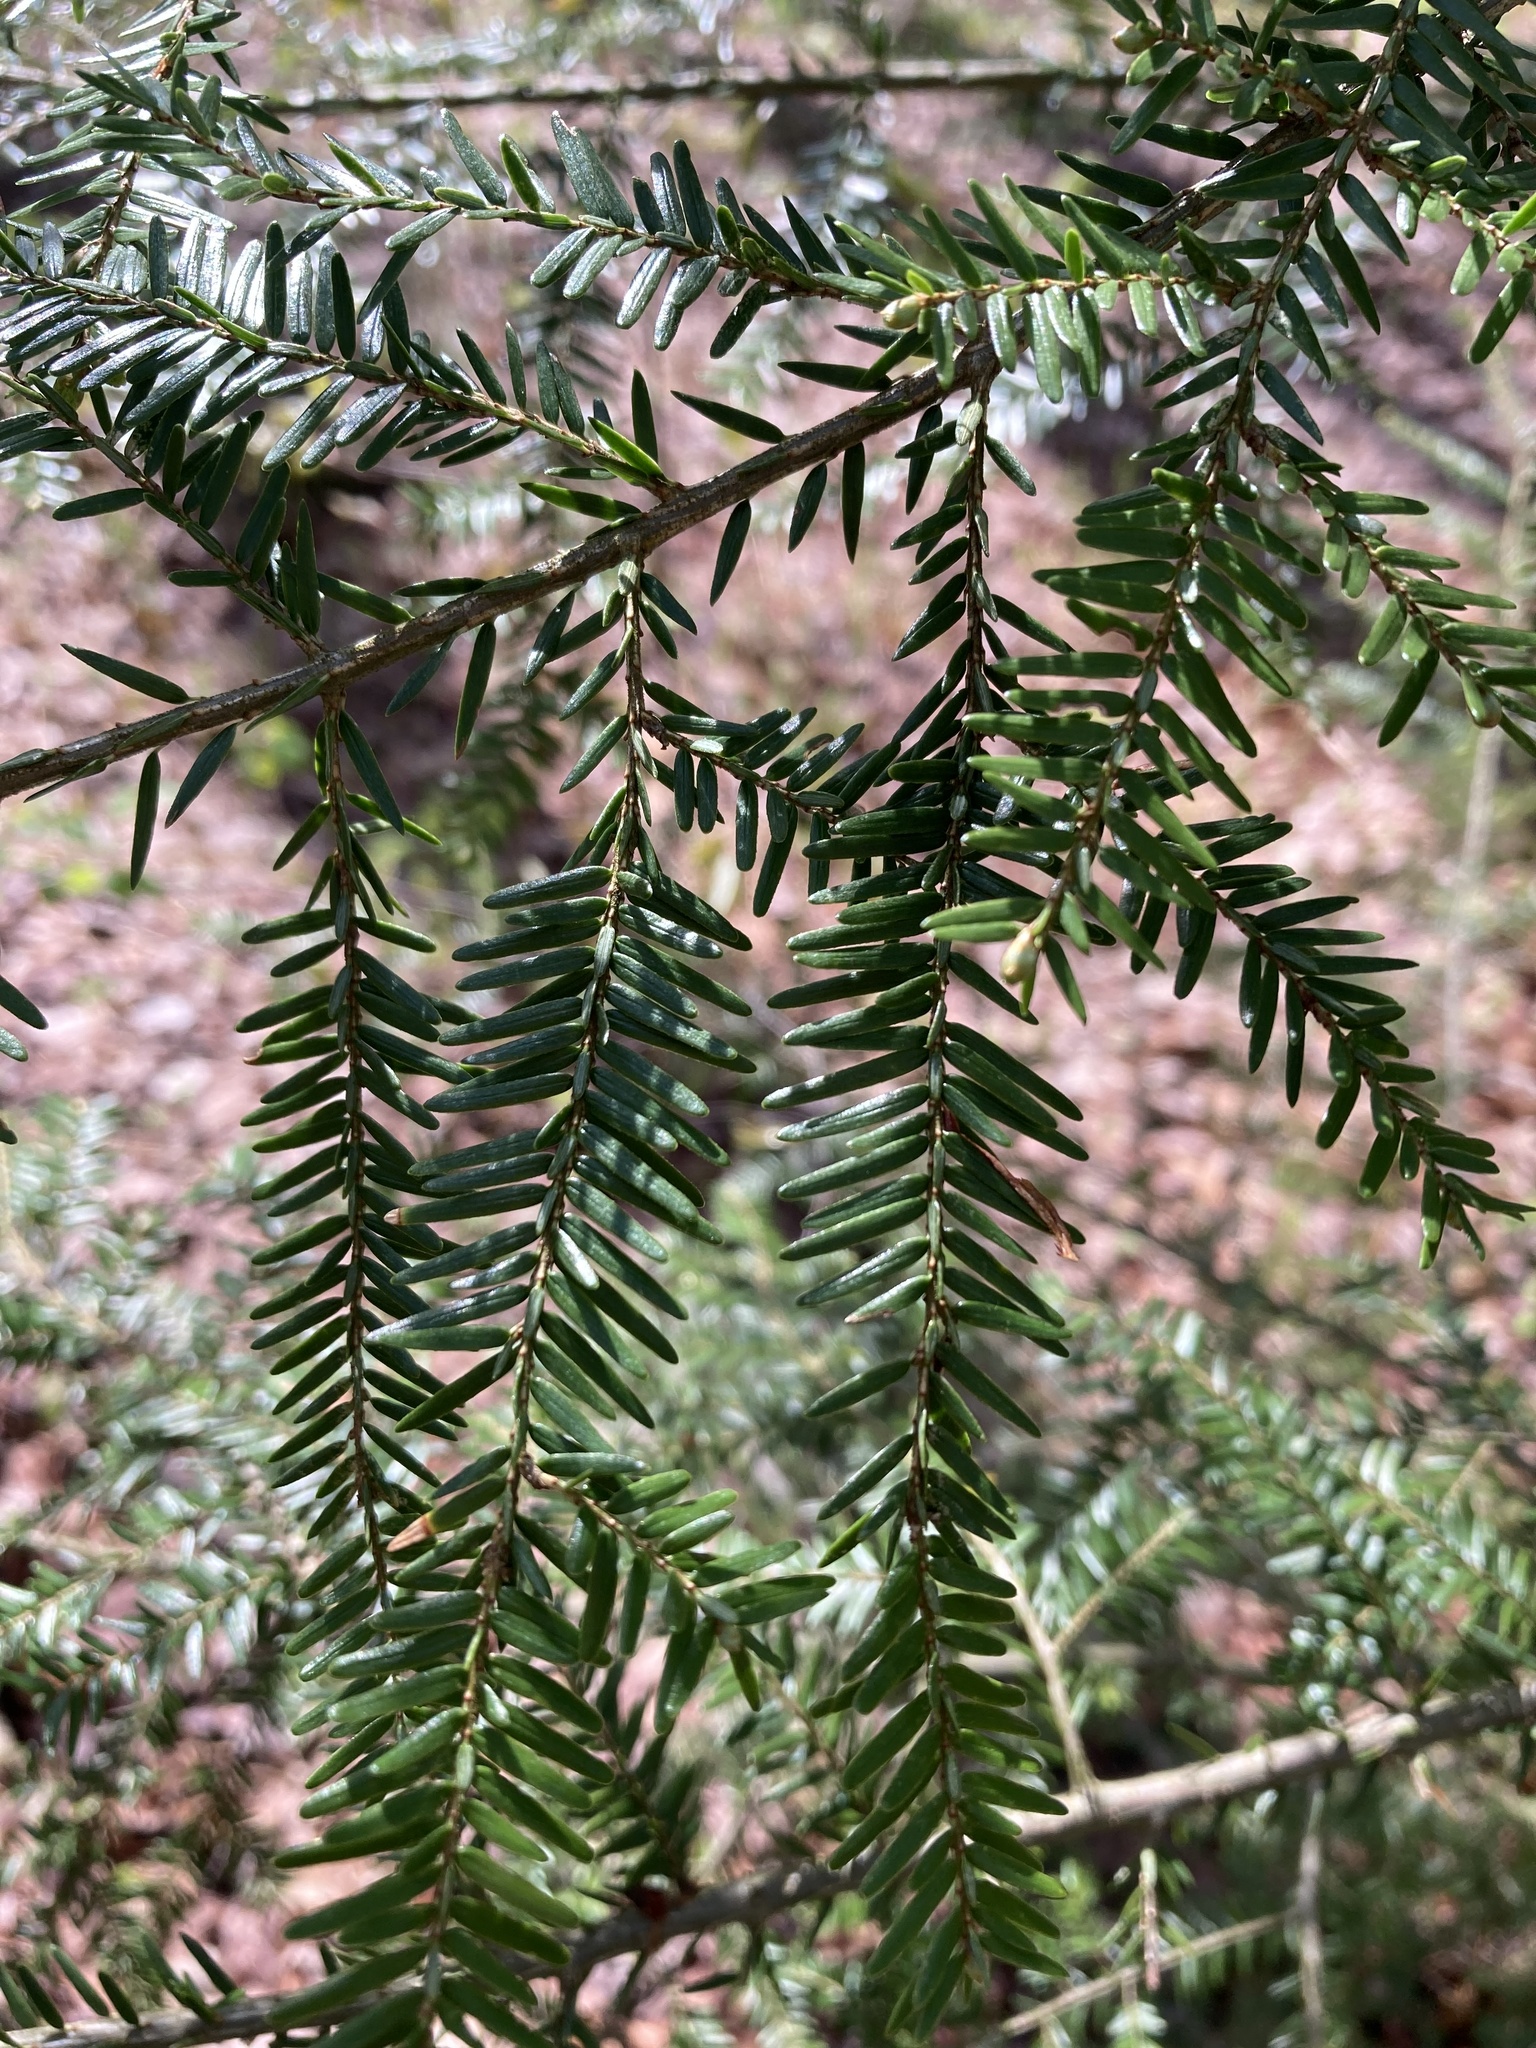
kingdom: Plantae
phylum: Tracheophyta
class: Pinopsida
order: Pinales
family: Pinaceae
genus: Tsuga
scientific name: Tsuga canadensis
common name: Eastern hemlock
